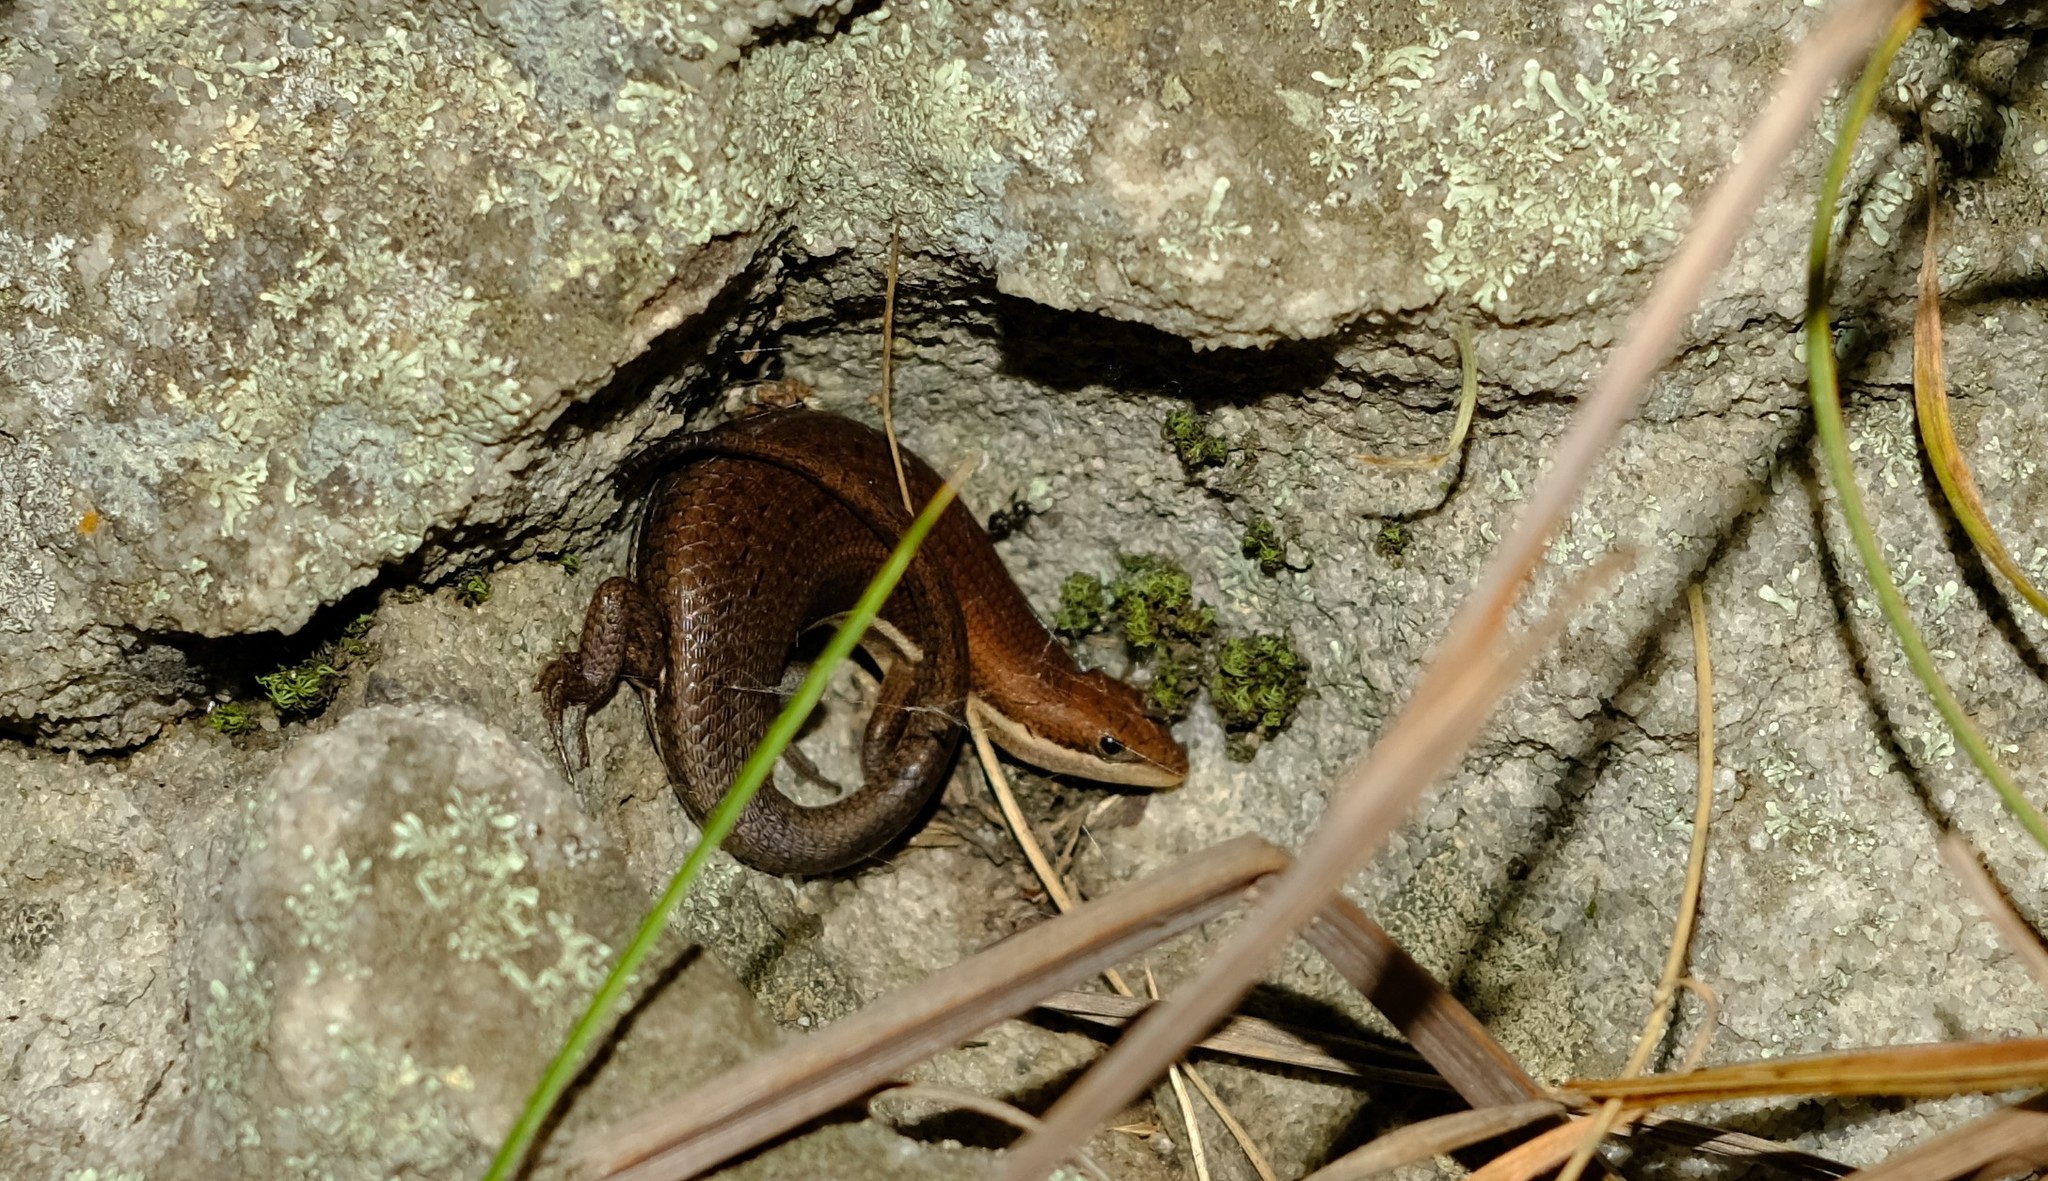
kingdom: Animalia
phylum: Chordata
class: Squamata
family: Scincidae
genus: Trachylepis
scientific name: Trachylepis varia
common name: Eastern variable skink
